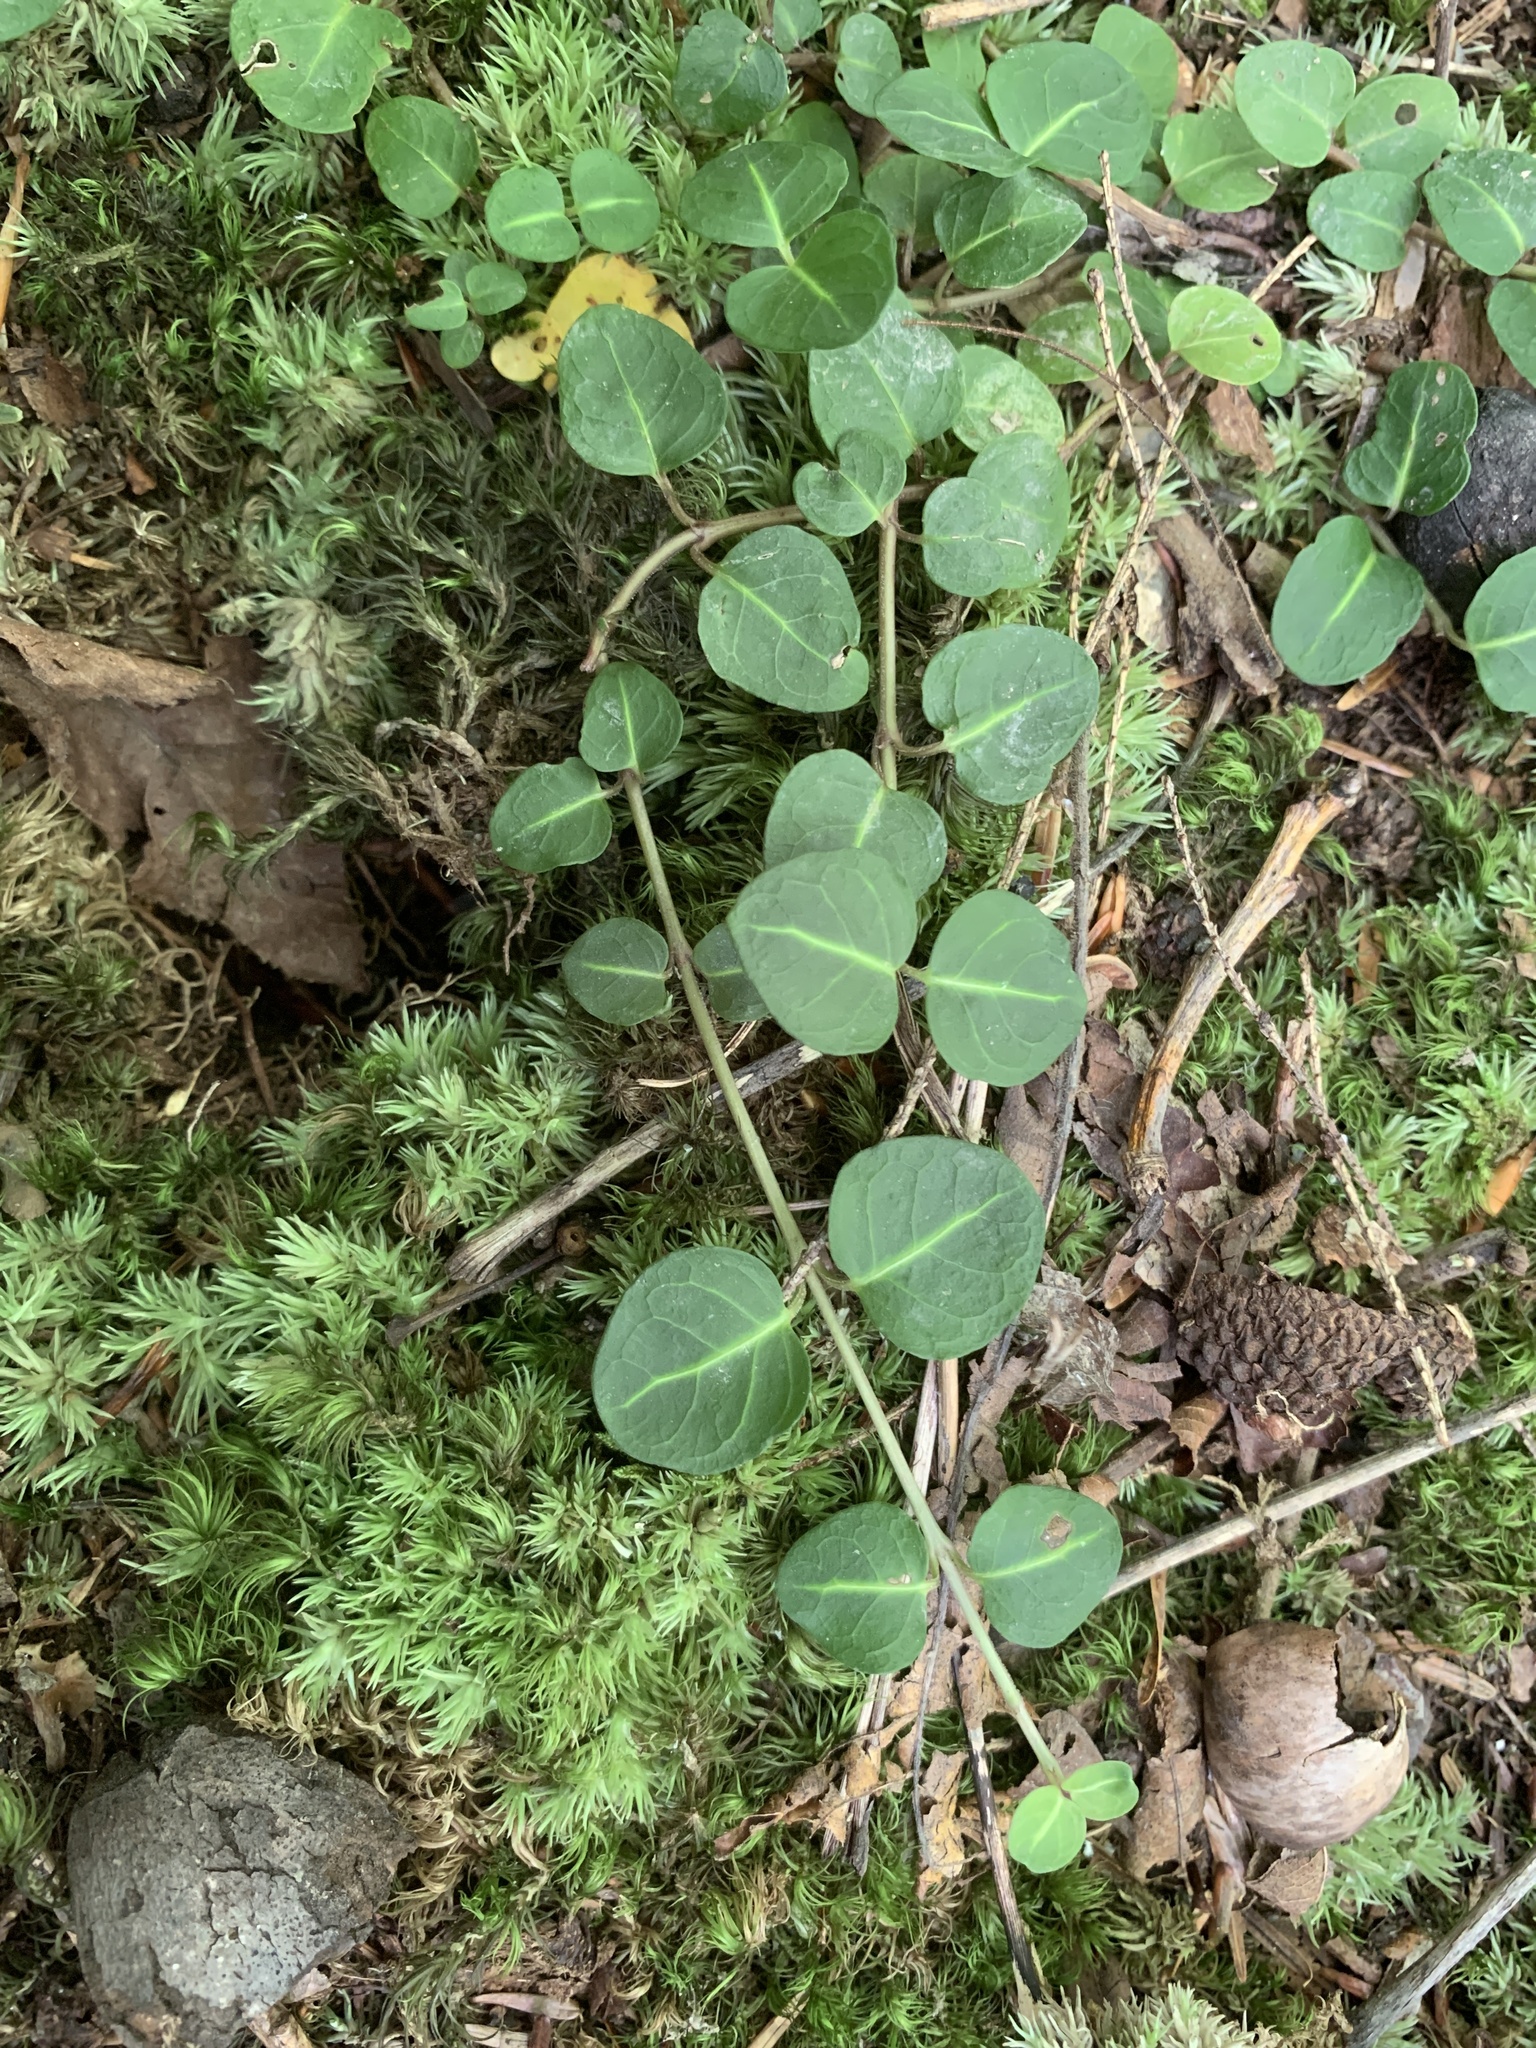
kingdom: Plantae
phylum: Tracheophyta
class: Magnoliopsida
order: Gentianales
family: Rubiaceae
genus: Mitchella
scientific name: Mitchella repens
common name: Partridge-berry
